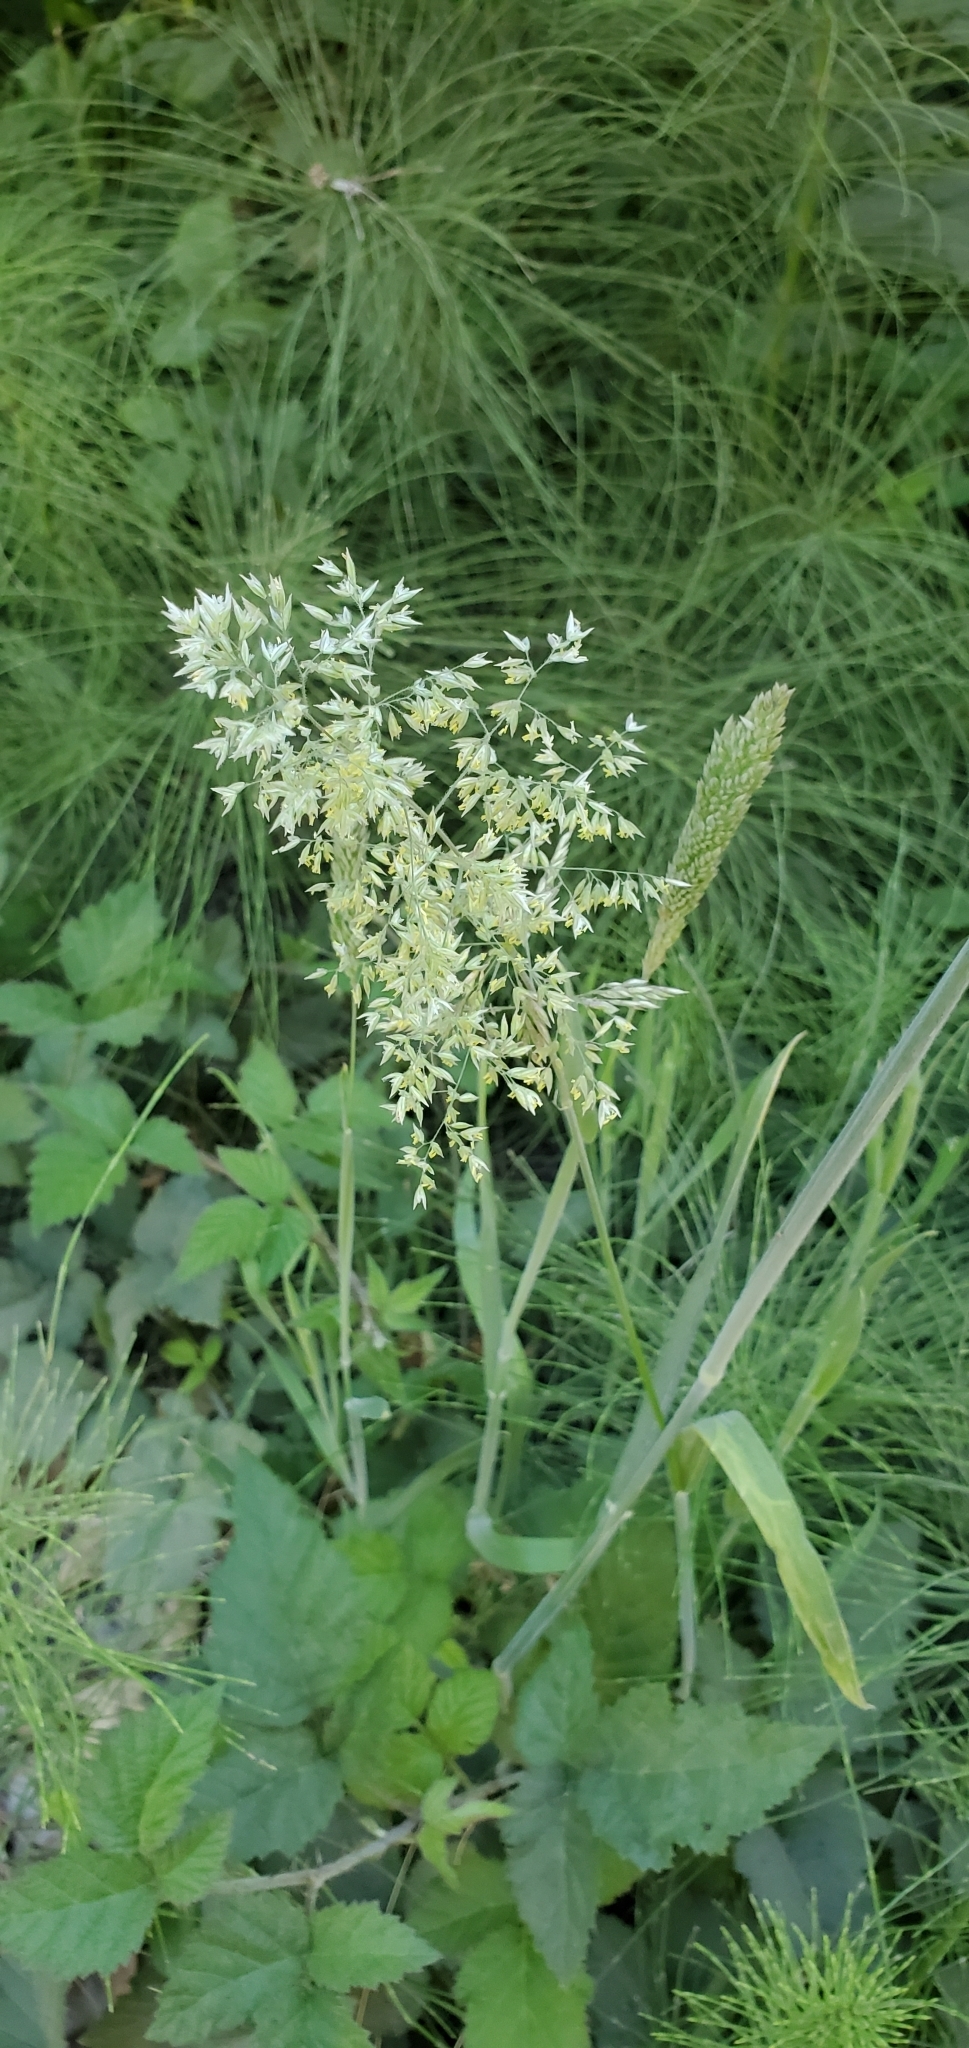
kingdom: Plantae
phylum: Tracheophyta
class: Liliopsida
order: Poales
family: Poaceae
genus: Holcus
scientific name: Holcus lanatus
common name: Yorkshire-fog
